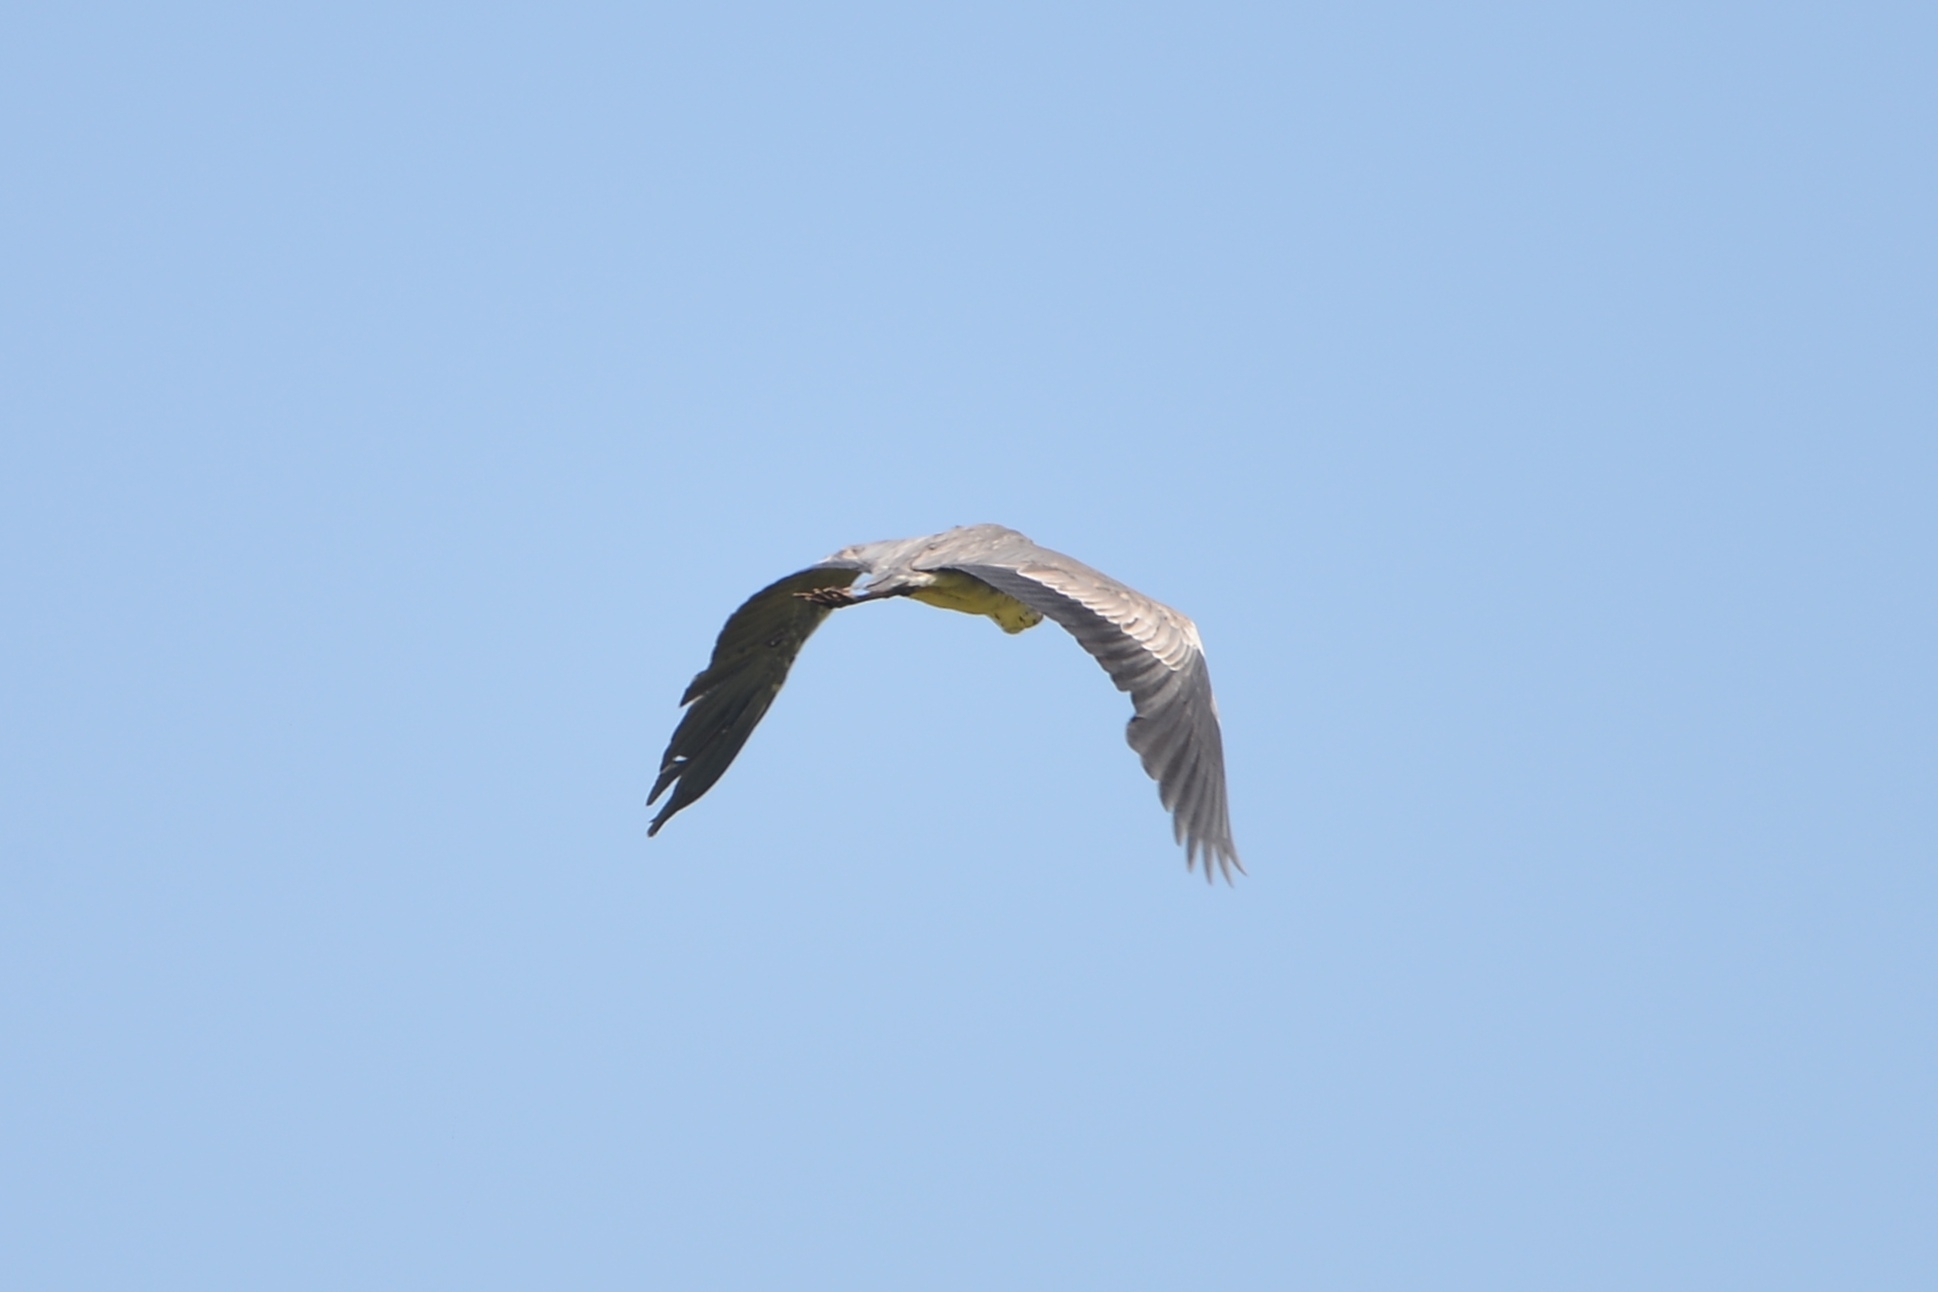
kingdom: Animalia
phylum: Chordata
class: Aves
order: Pelecaniformes
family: Ardeidae
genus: Ardea
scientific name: Ardea cinerea
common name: Grey heron
